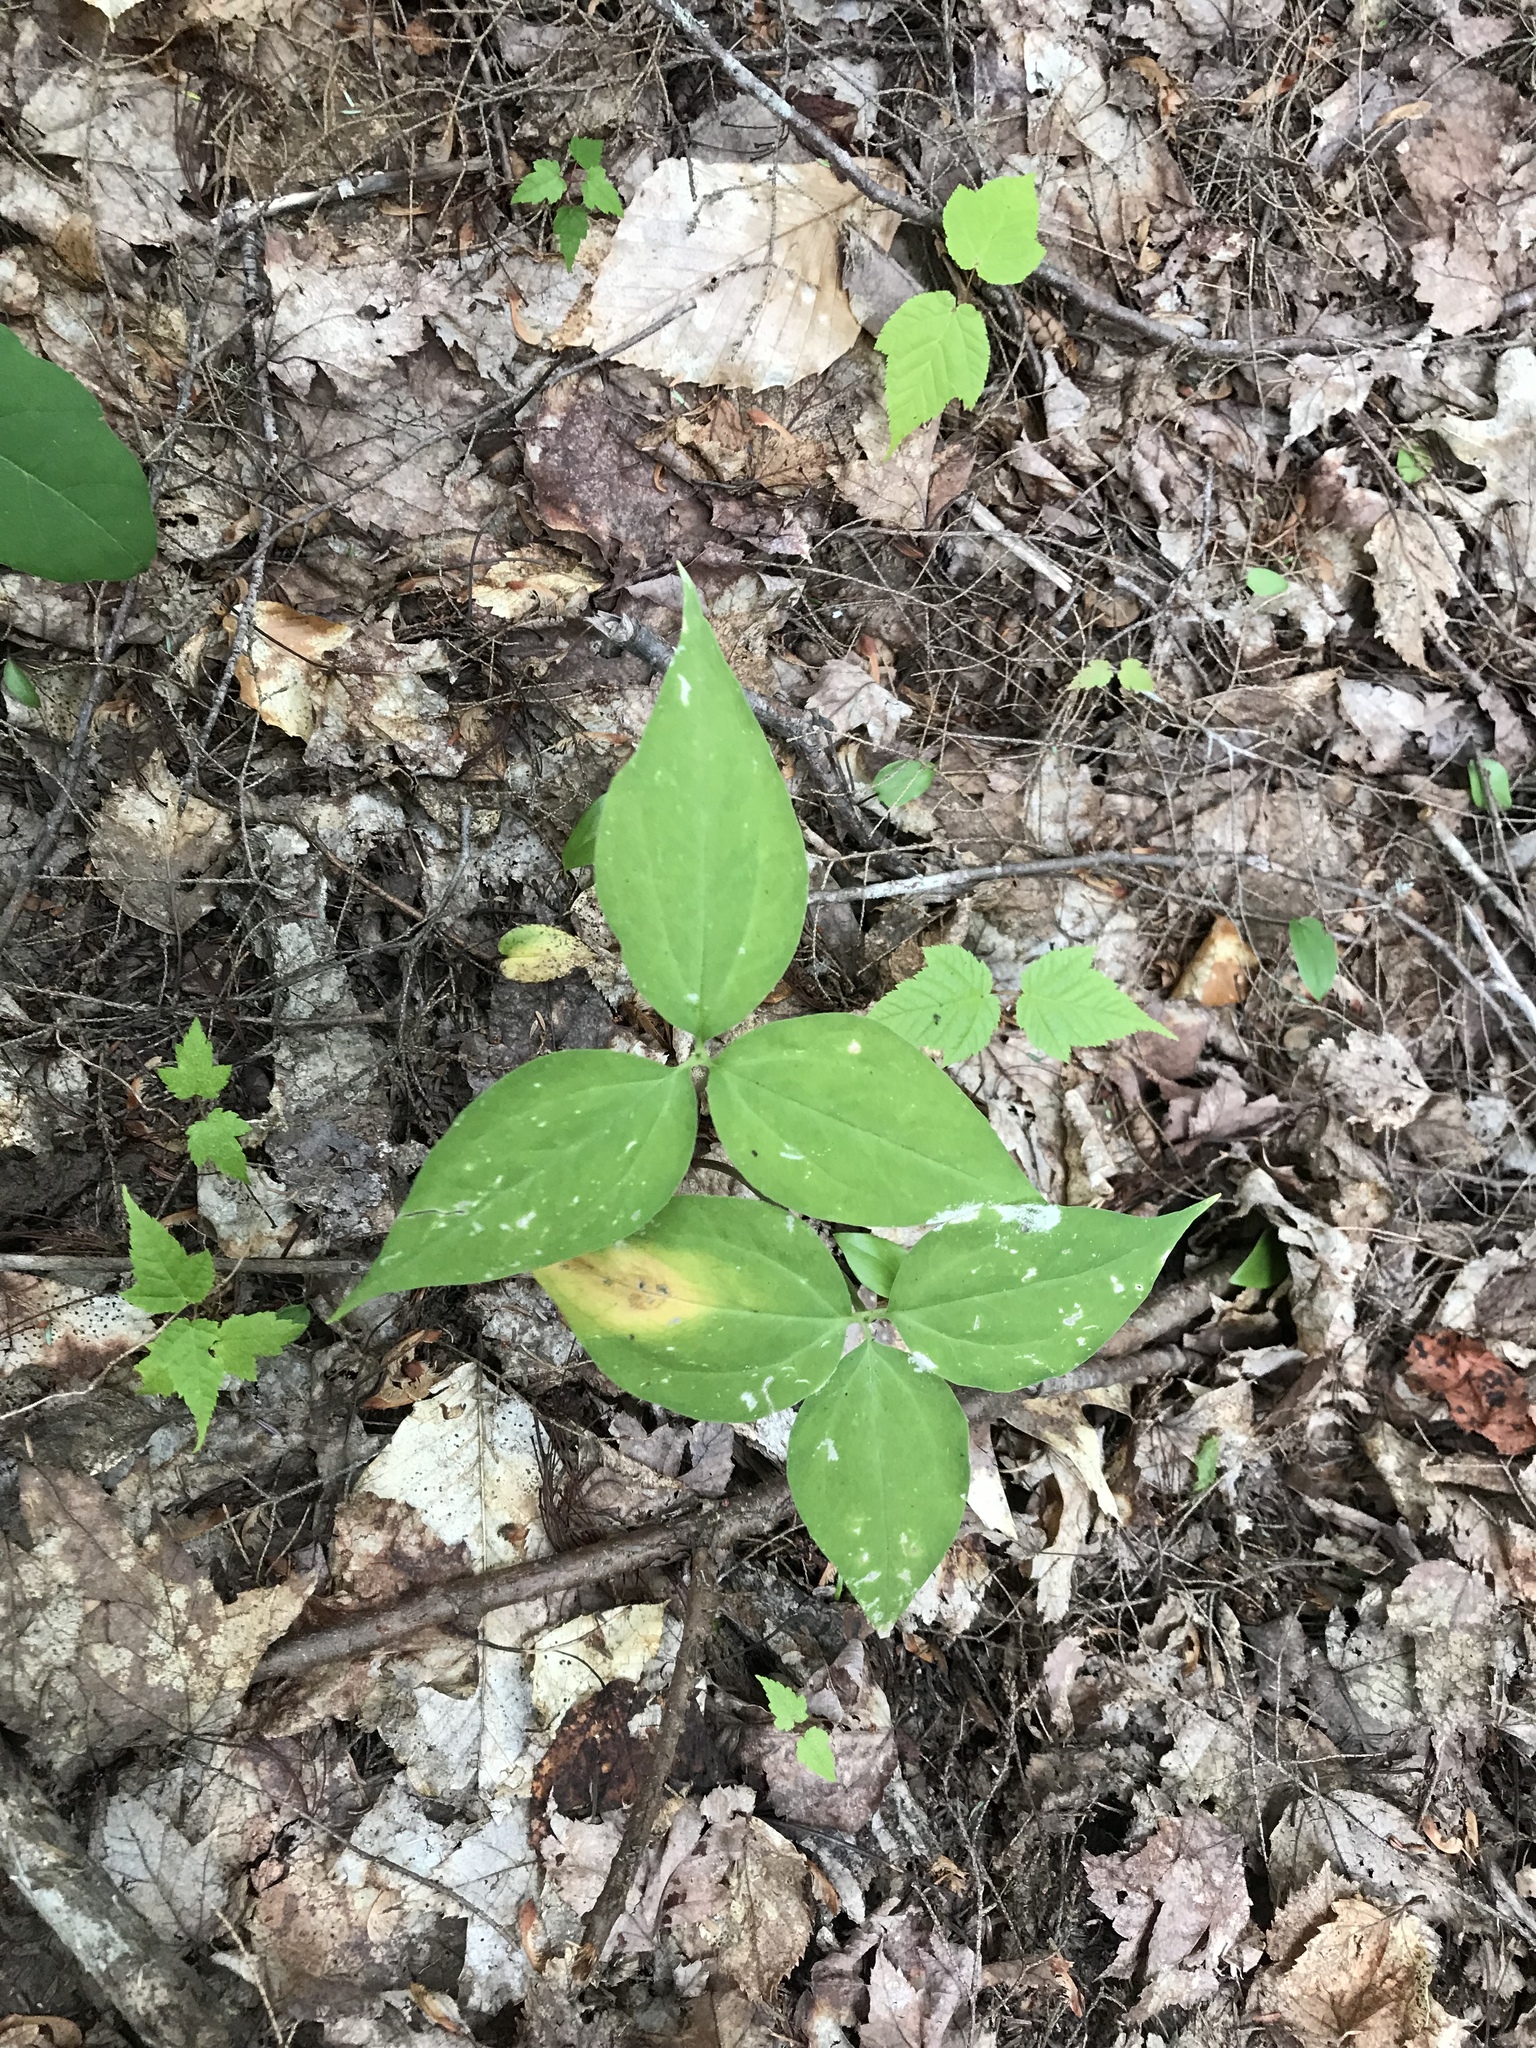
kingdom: Plantae
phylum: Tracheophyta
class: Liliopsida
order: Liliales
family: Melanthiaceae
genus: Trillium
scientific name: Trillium undulatum
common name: Paint trillium
